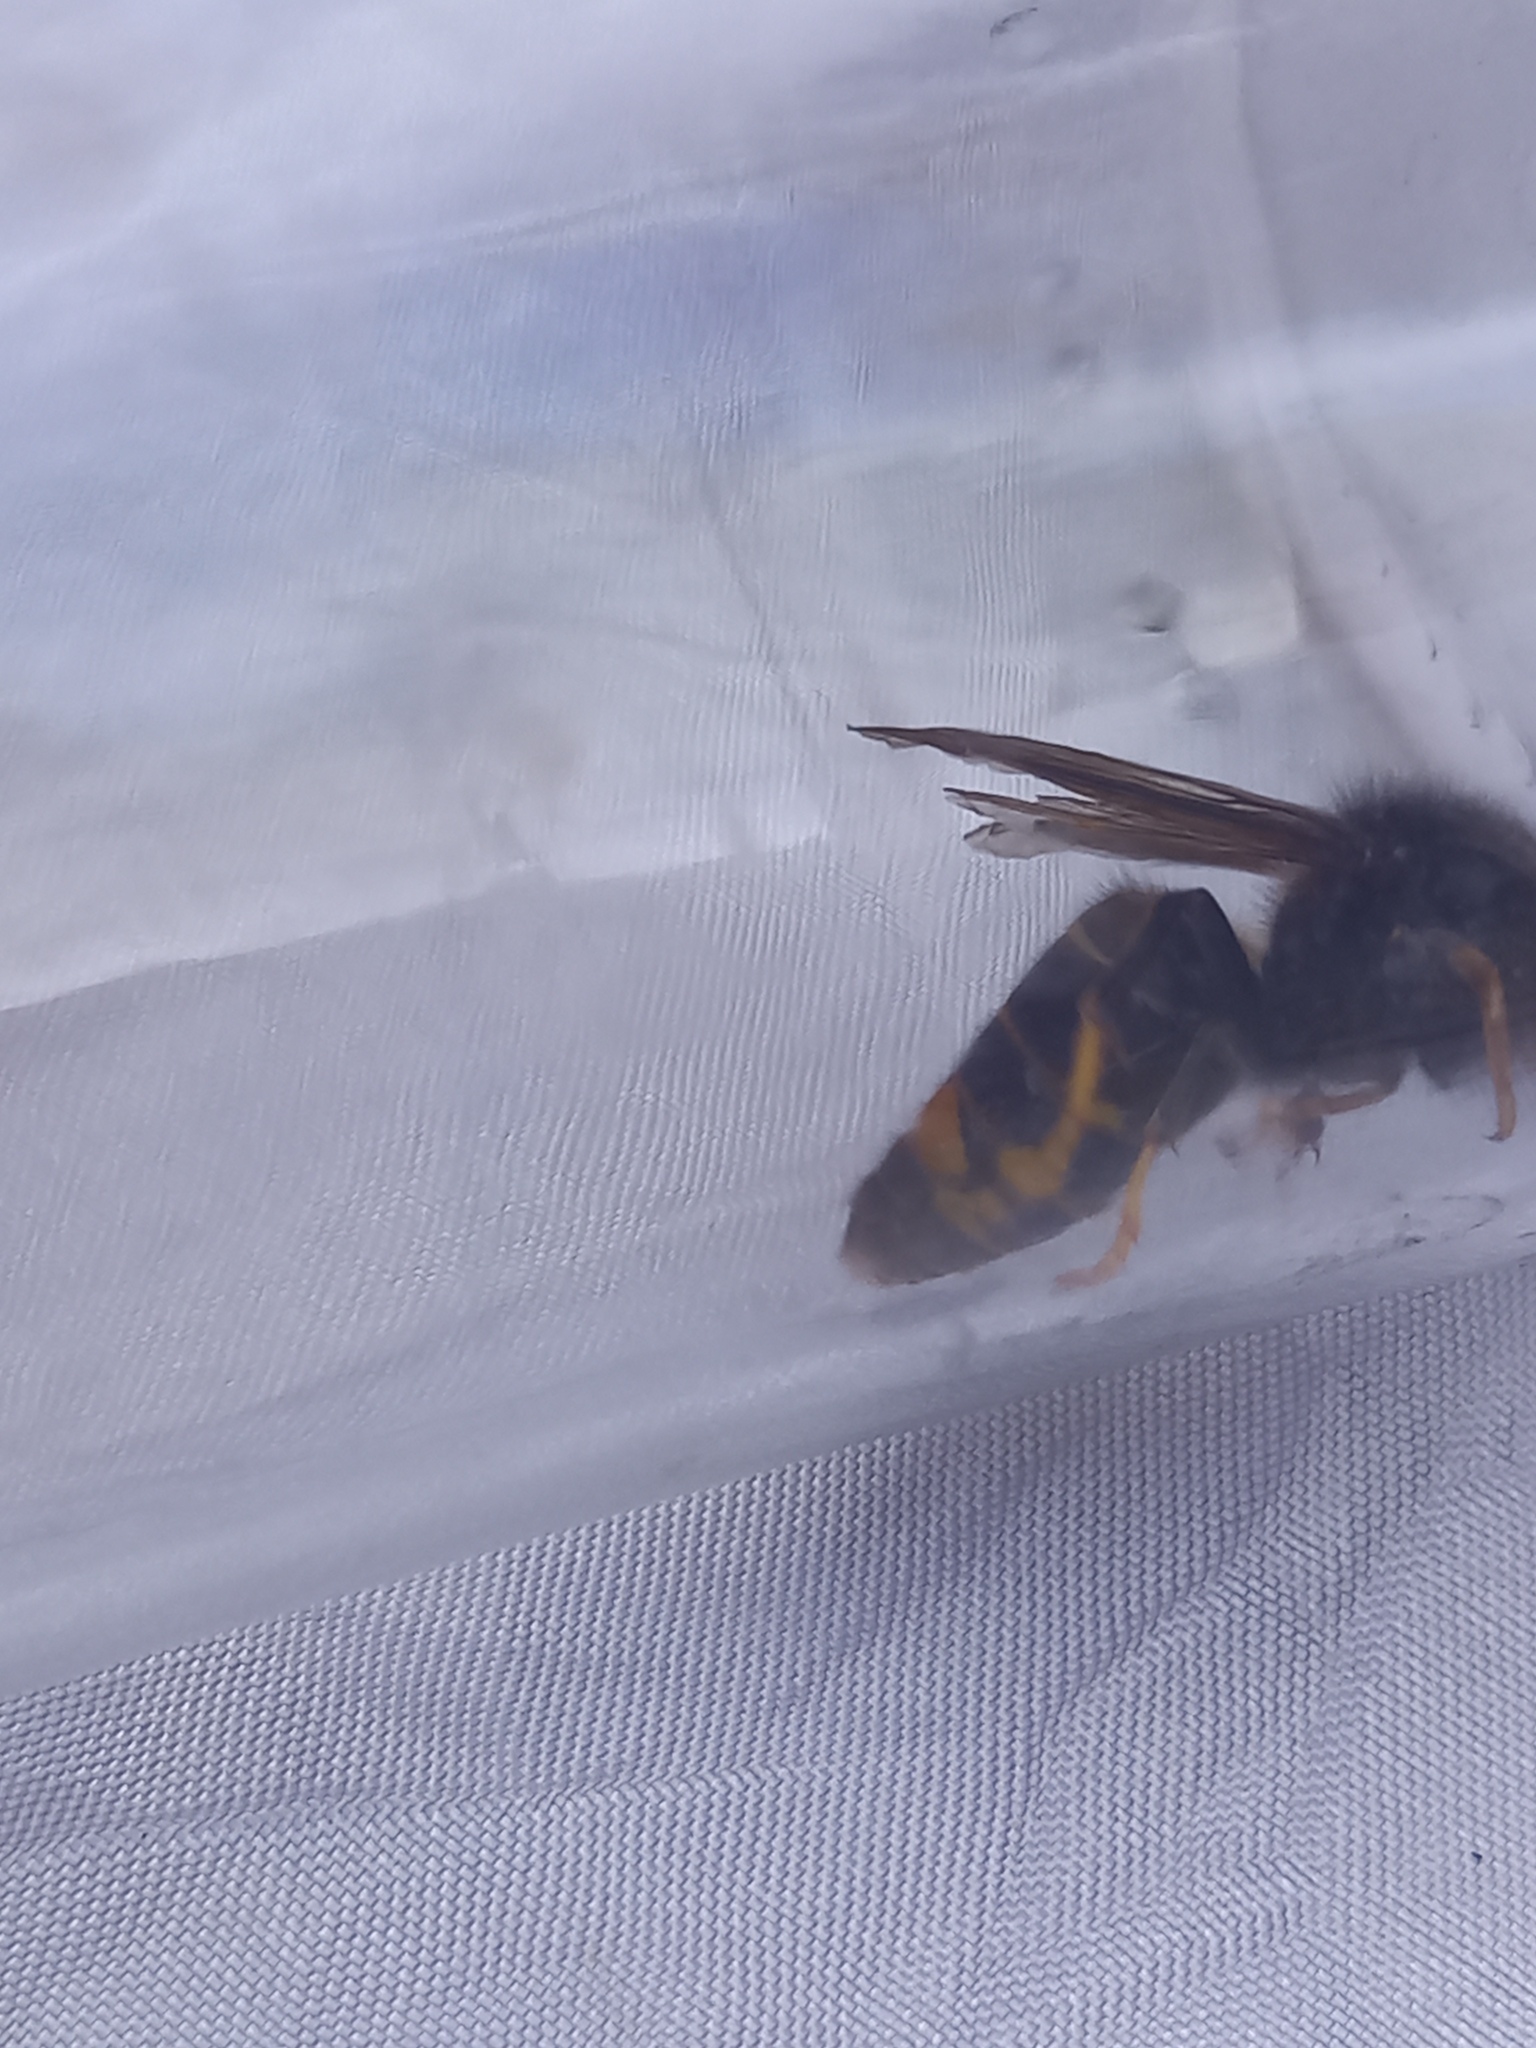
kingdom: Animalia
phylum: Arthropoda
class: Insecta
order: Hymenoptera
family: Vespidae
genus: Vespa
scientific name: Vespa velutina
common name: Asian hornet
